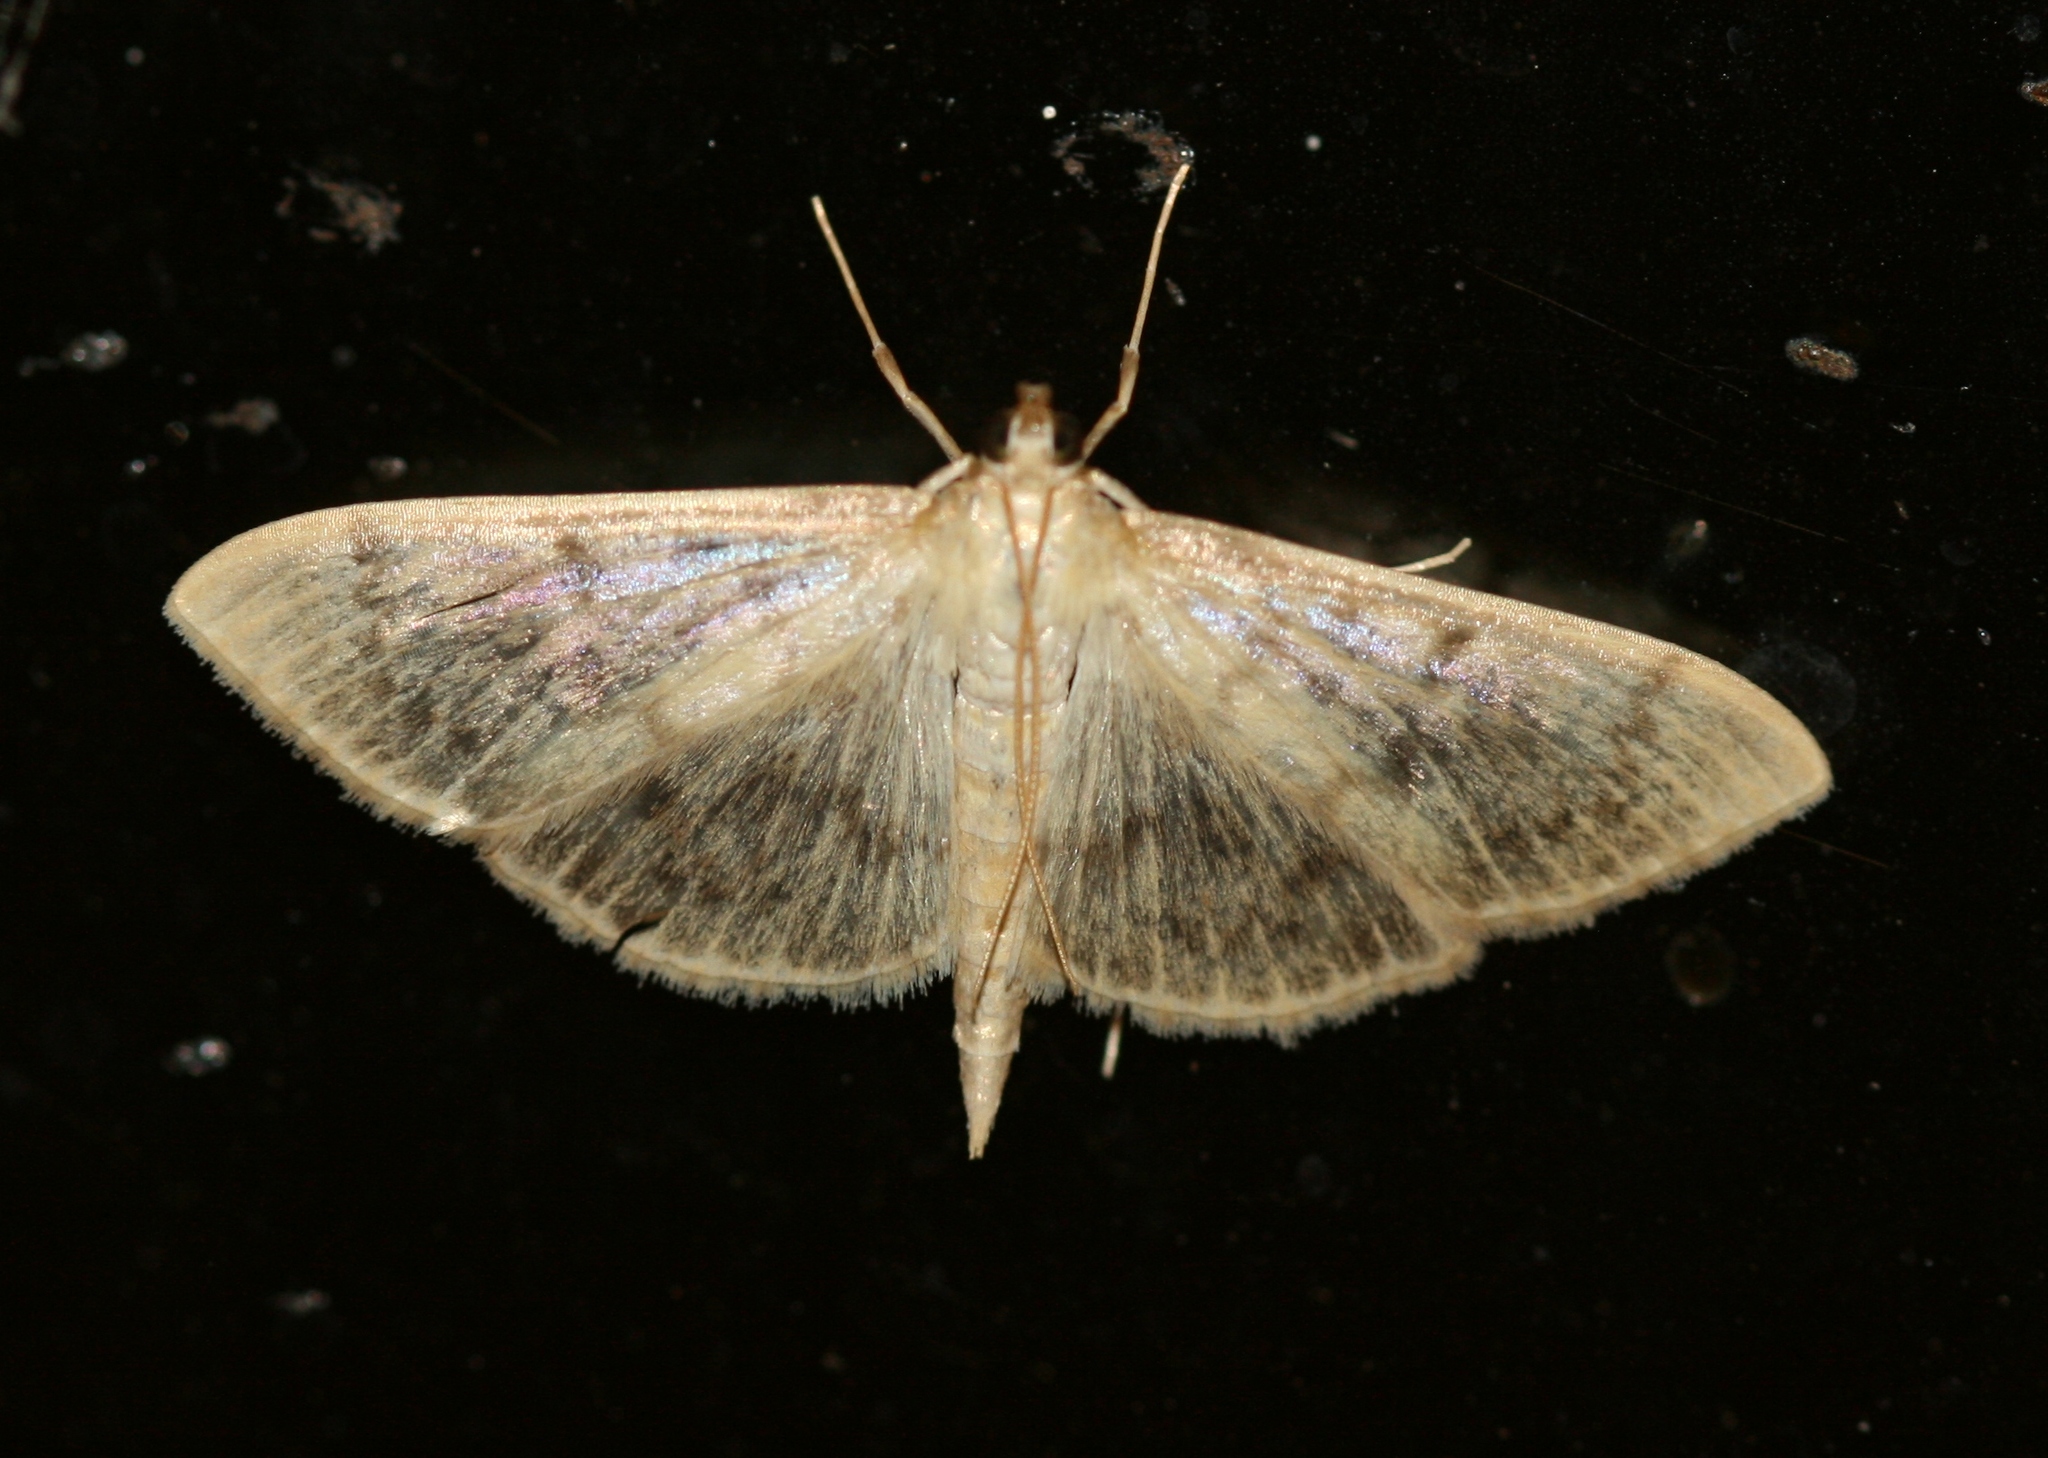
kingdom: Animalia
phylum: Arthropoda
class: Insecta
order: Lepidoptera
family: Crambidae
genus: Patania
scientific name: Patania ruralis
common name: Mother of pearl
